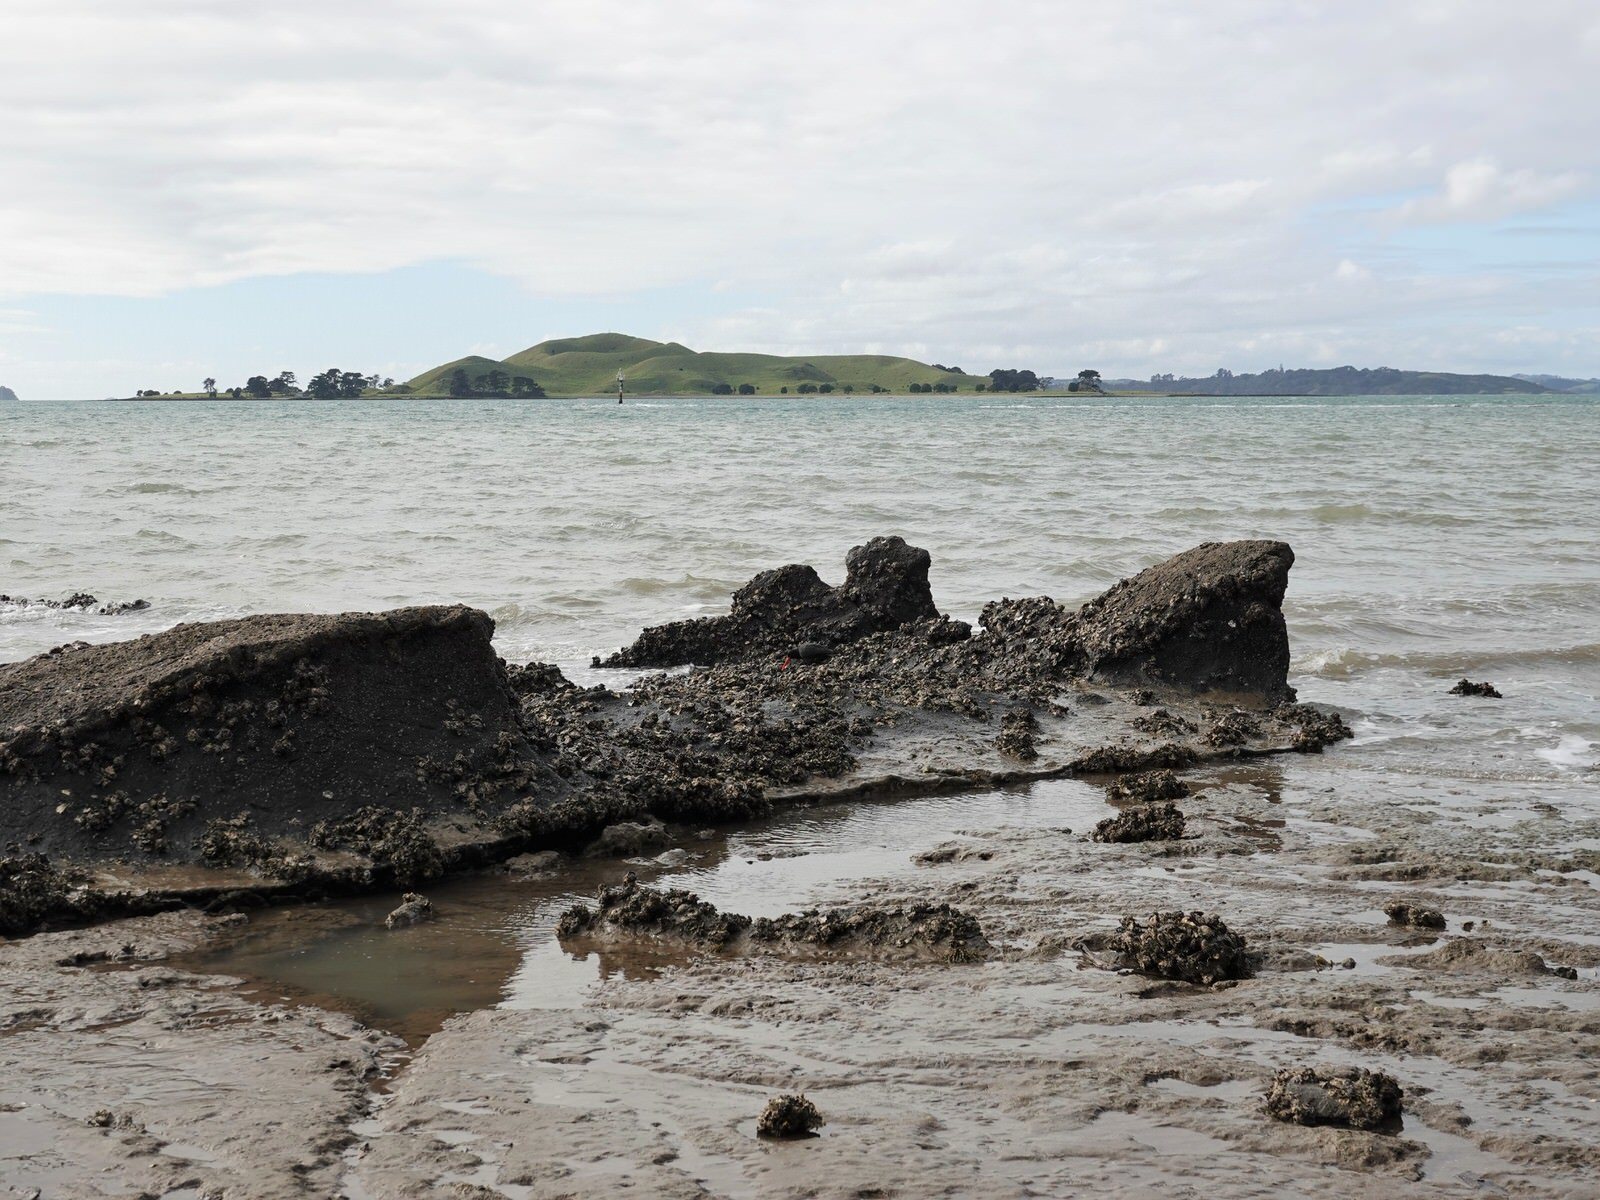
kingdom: Animalia
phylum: Chordata
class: Aves
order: Charadriiformes
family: Haematopodidae
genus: Haematopus
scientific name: Haematopus unicolor
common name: Variable oystercatcher
